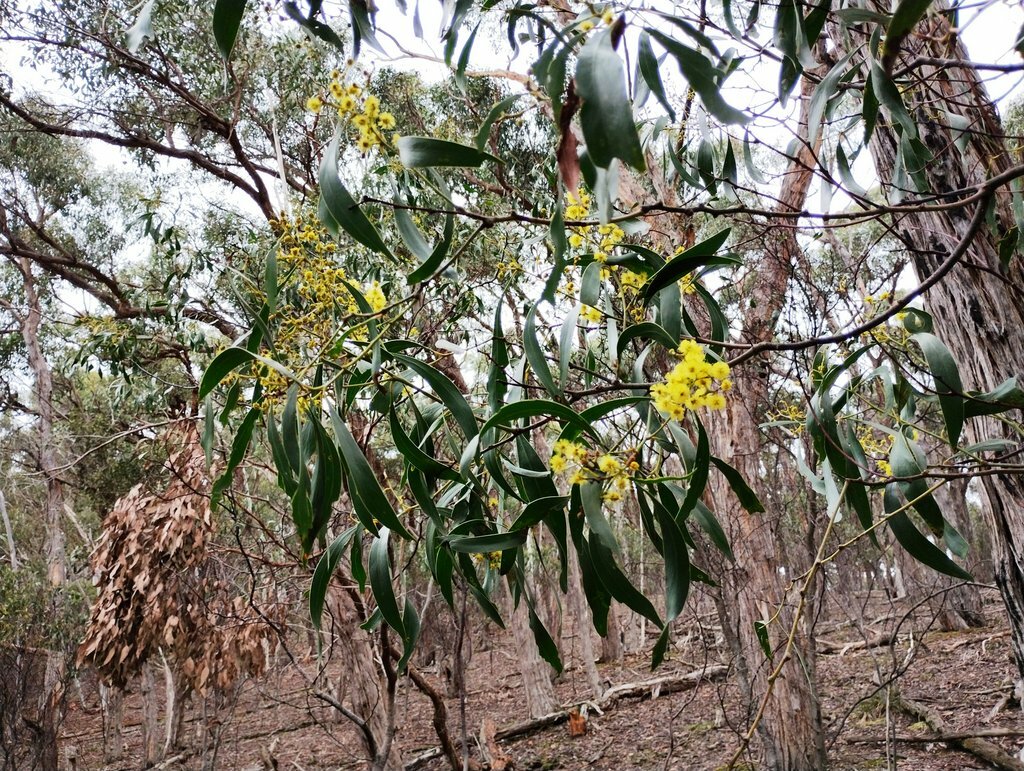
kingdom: Plantae
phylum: Tracheophyta
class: Magnoliopsida
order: Fabales
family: Fabaceae
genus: Acacia
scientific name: Acacia pycnantha
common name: Golden wattle
